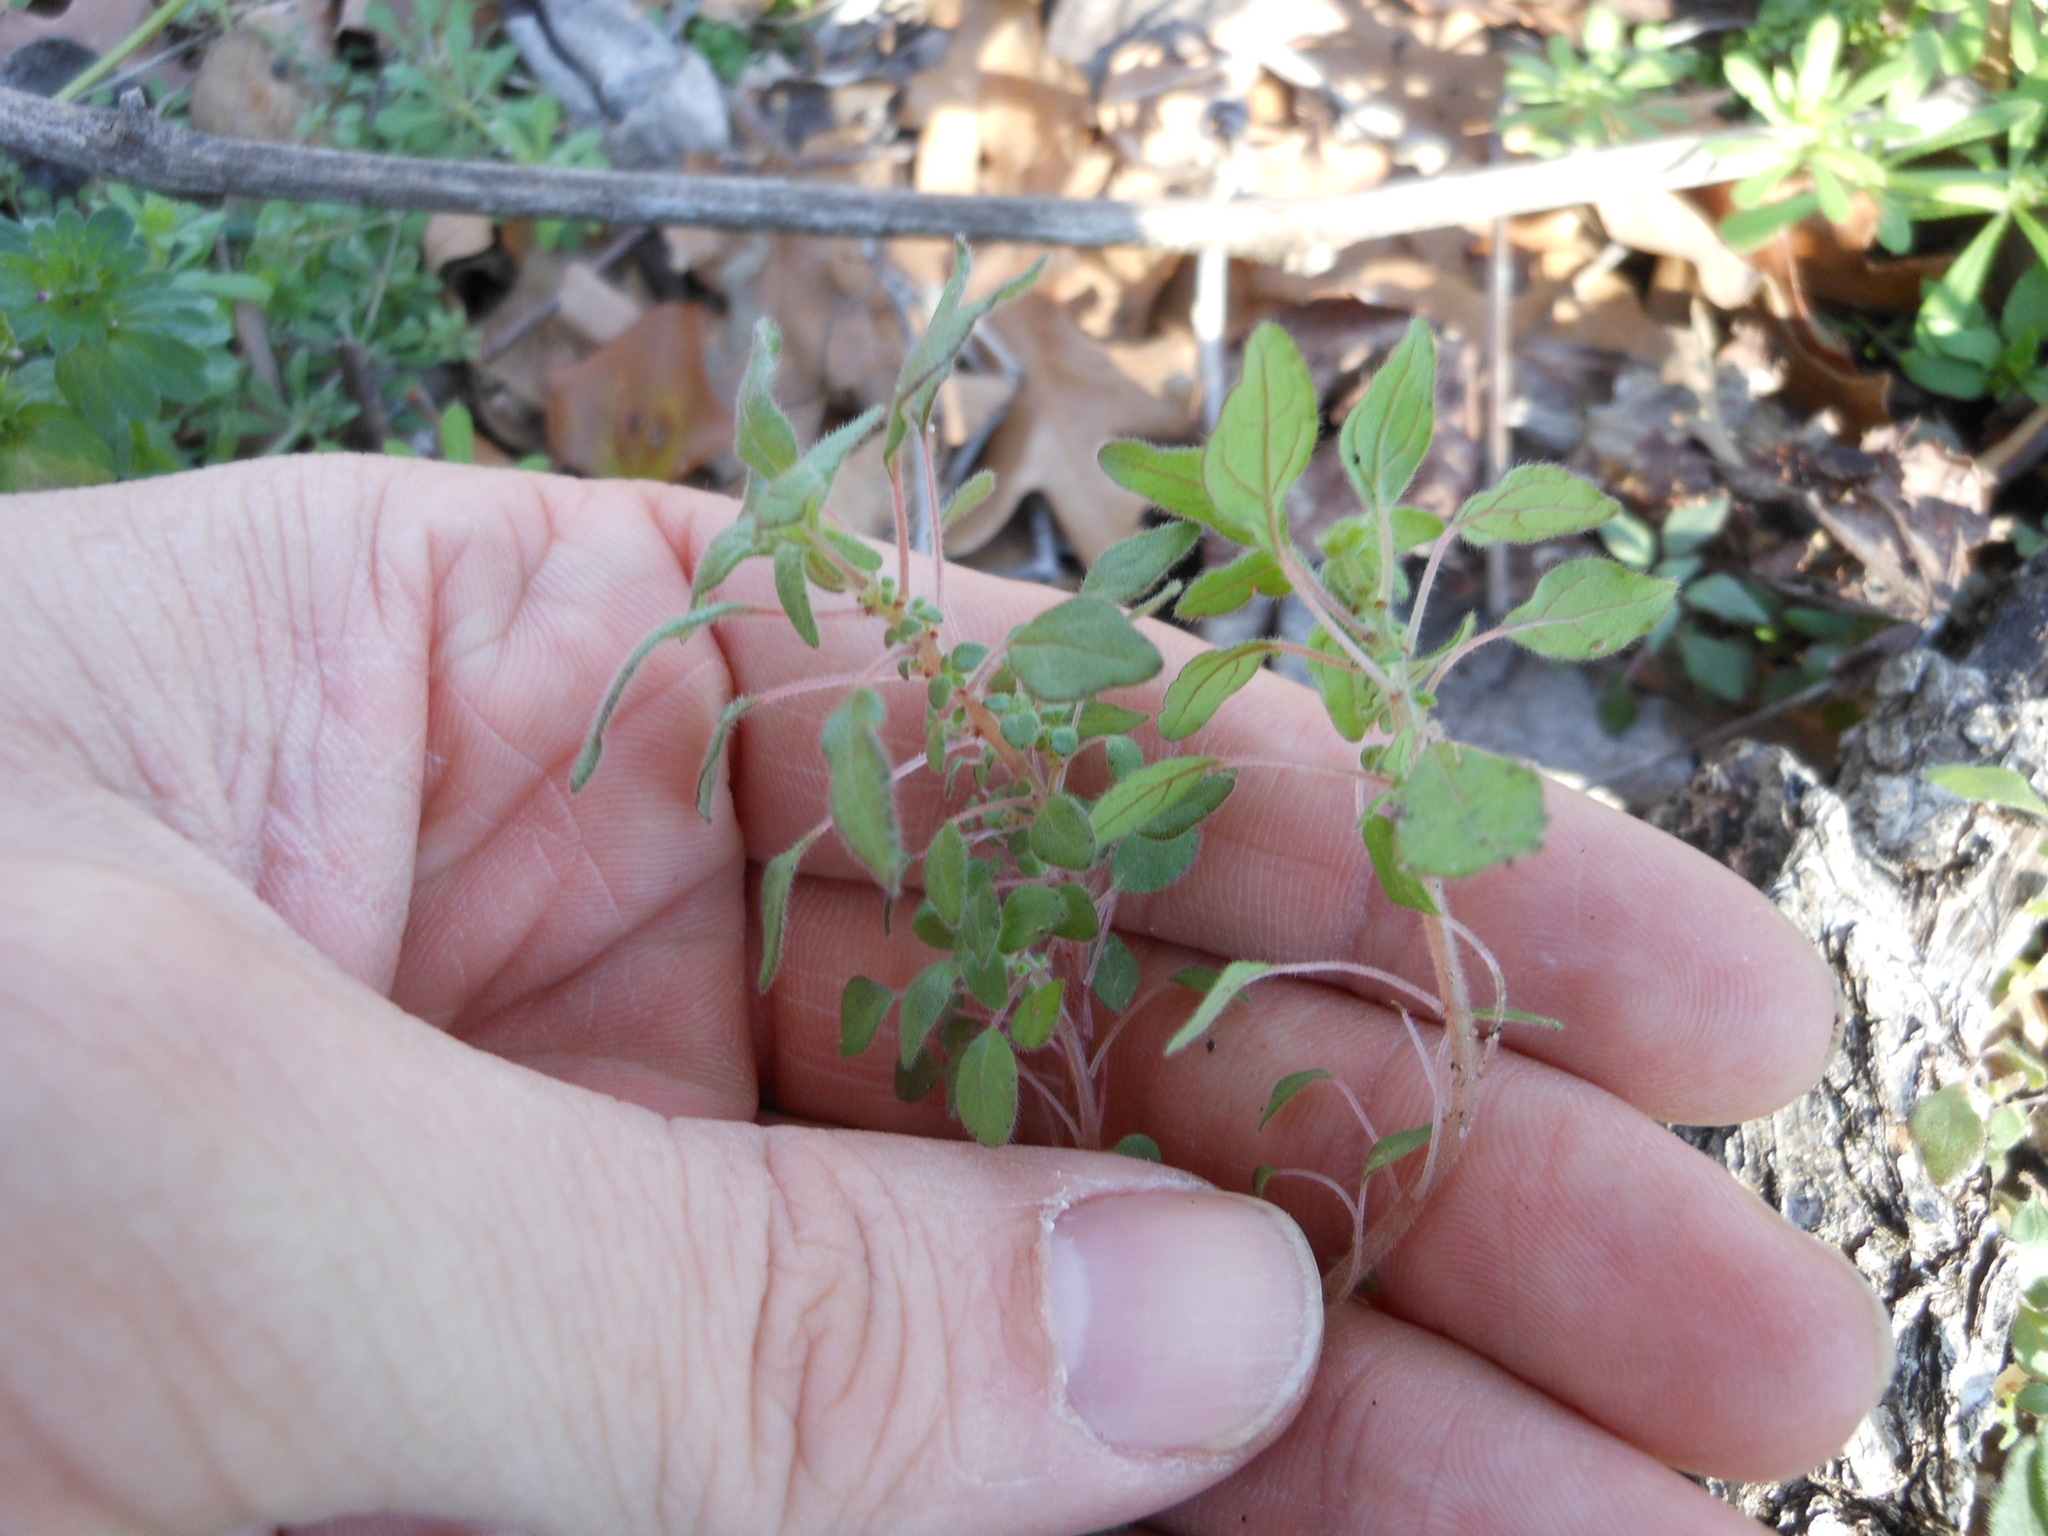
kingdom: Plantae
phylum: Tracheophyta
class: Magnoliopsida
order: Rosales
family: Urticaceae
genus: Parietaria
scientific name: Parietaria pensylvanica
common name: Pennsylvania pellitory
